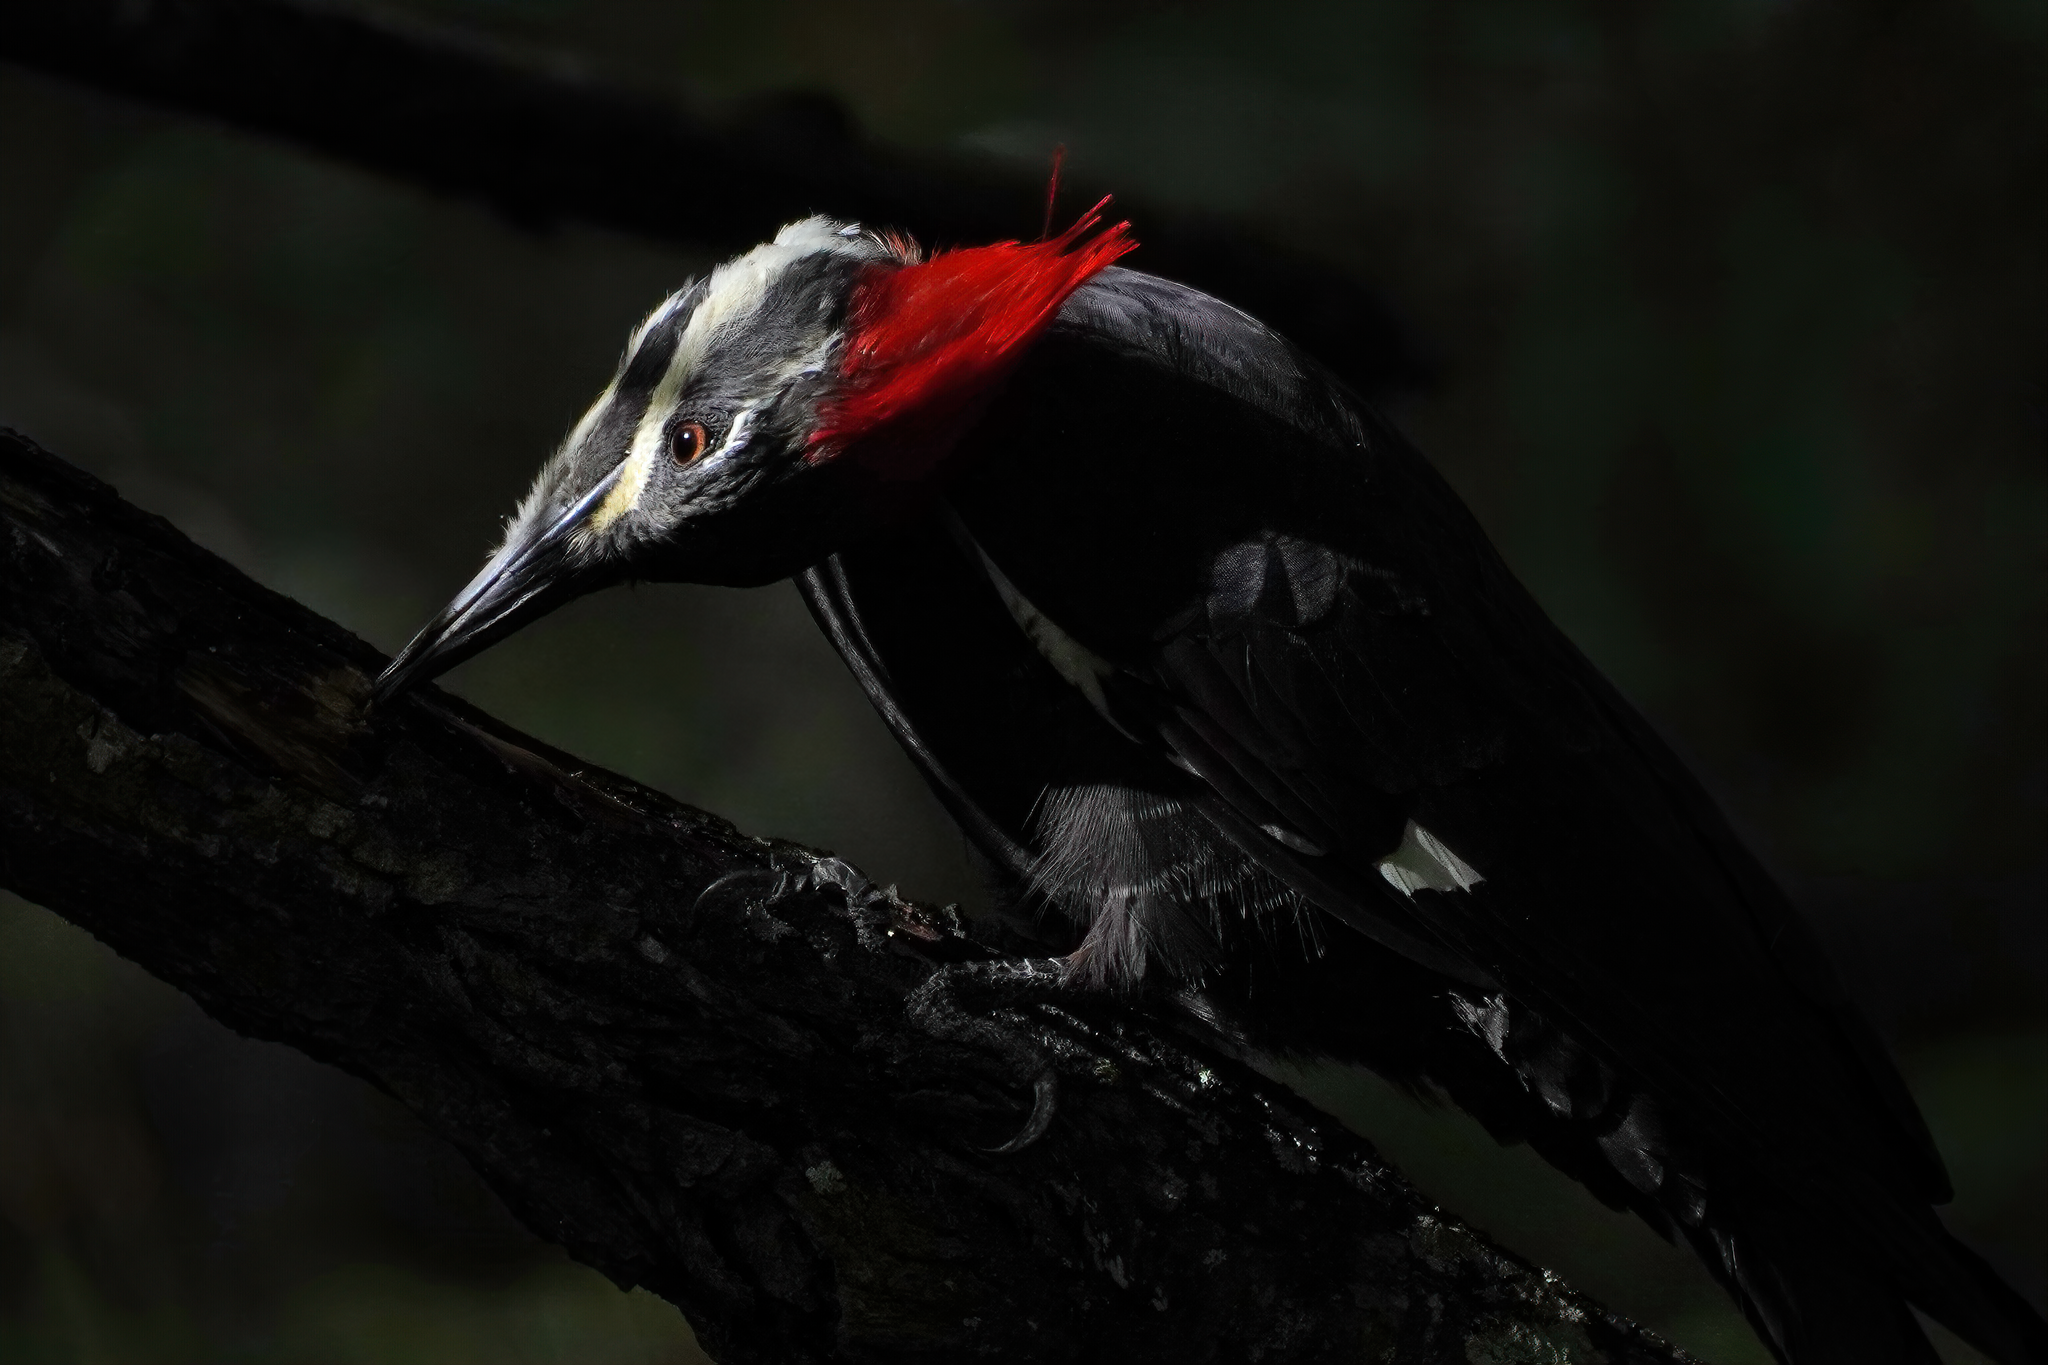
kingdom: Animalia
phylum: Chordata
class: Aves
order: Piciformes
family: Picidae
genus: Dryocopus
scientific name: Dryocopus pileatus
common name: Pileated woodpecker
